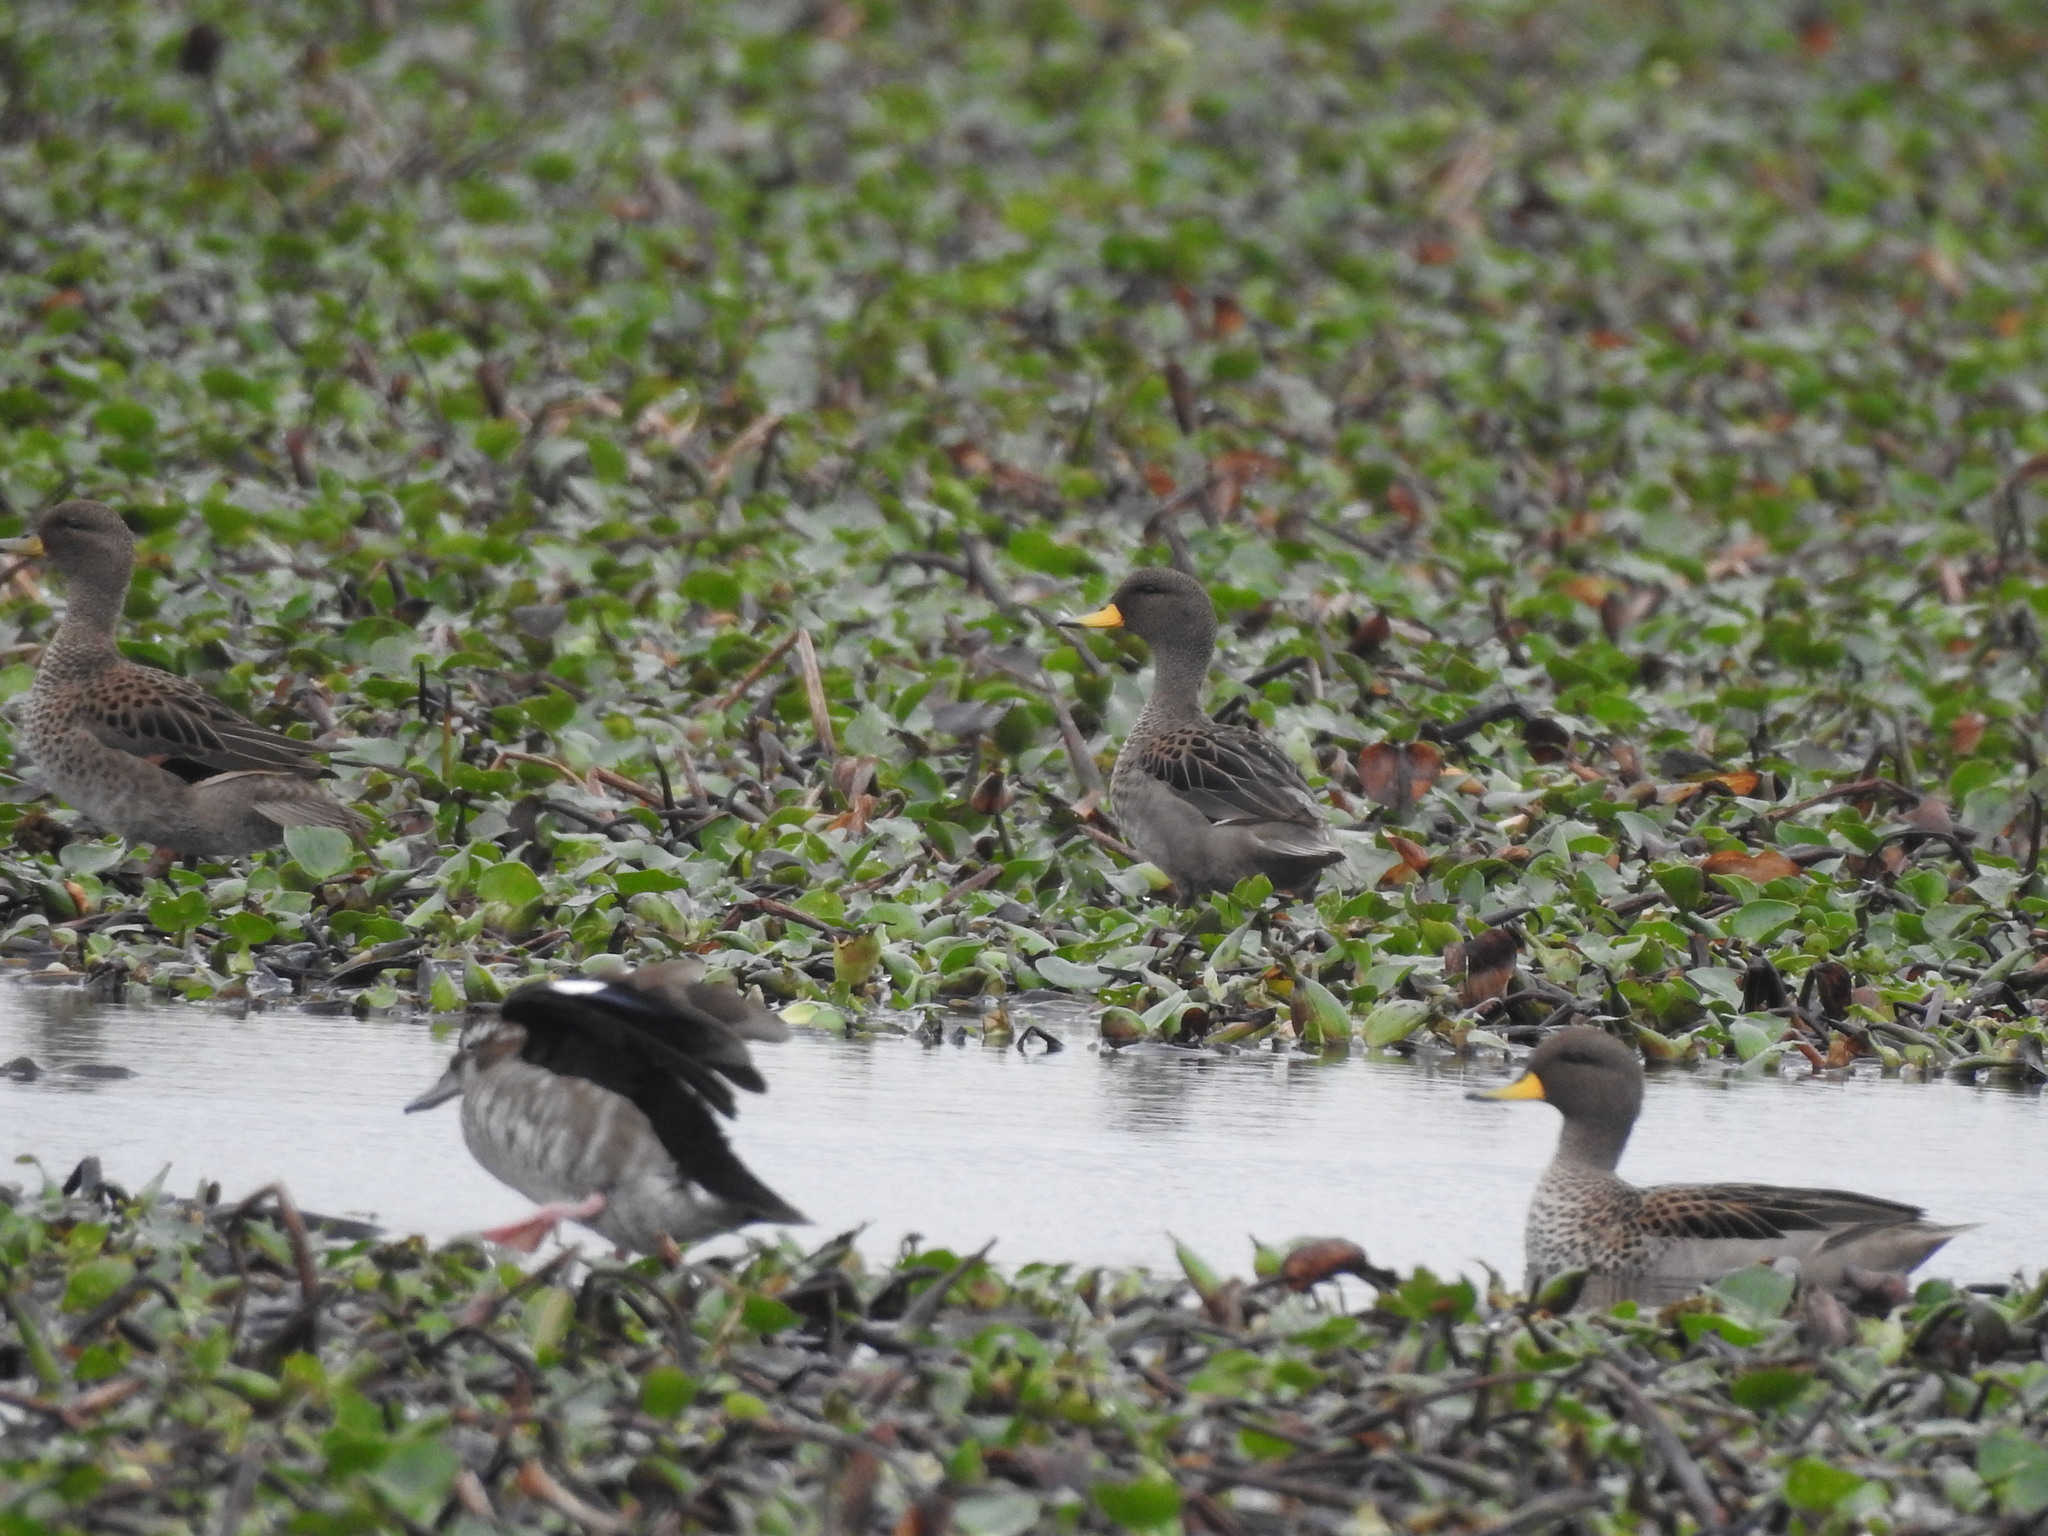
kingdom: Animalia
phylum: Chordata
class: Aves
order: Anseriformes
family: Anatidae
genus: Anas
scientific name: Anas flavirostris
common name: Yellow-billed teal
